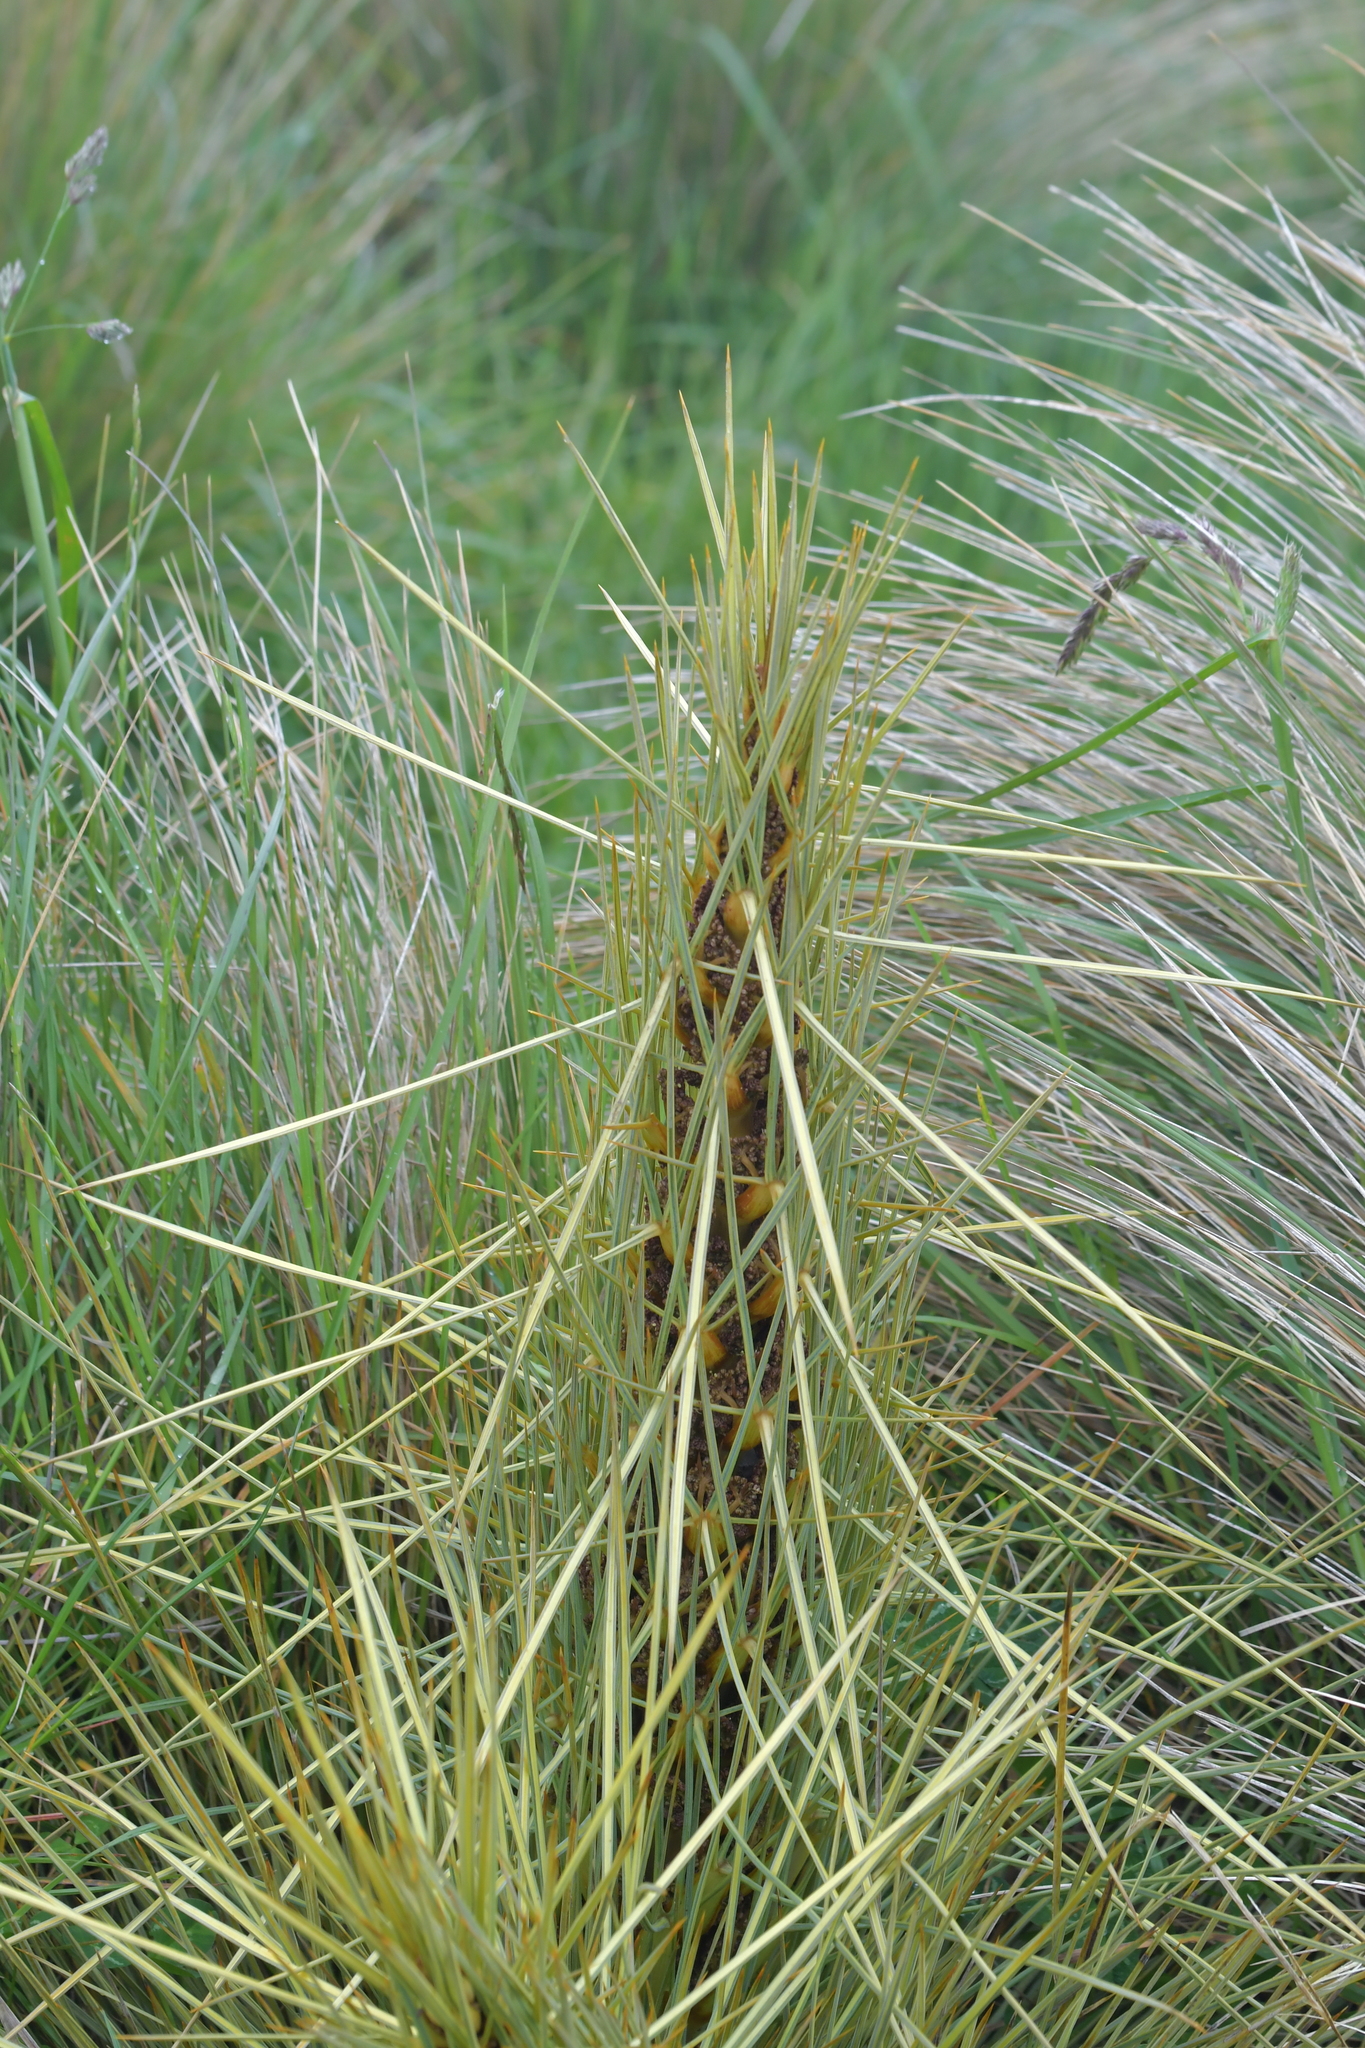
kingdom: Plantae
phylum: Tracheophyta
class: Magnoliopsida
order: Apiales
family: Apiaceae
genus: Aciphylla
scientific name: Aciphylla subflabellata
